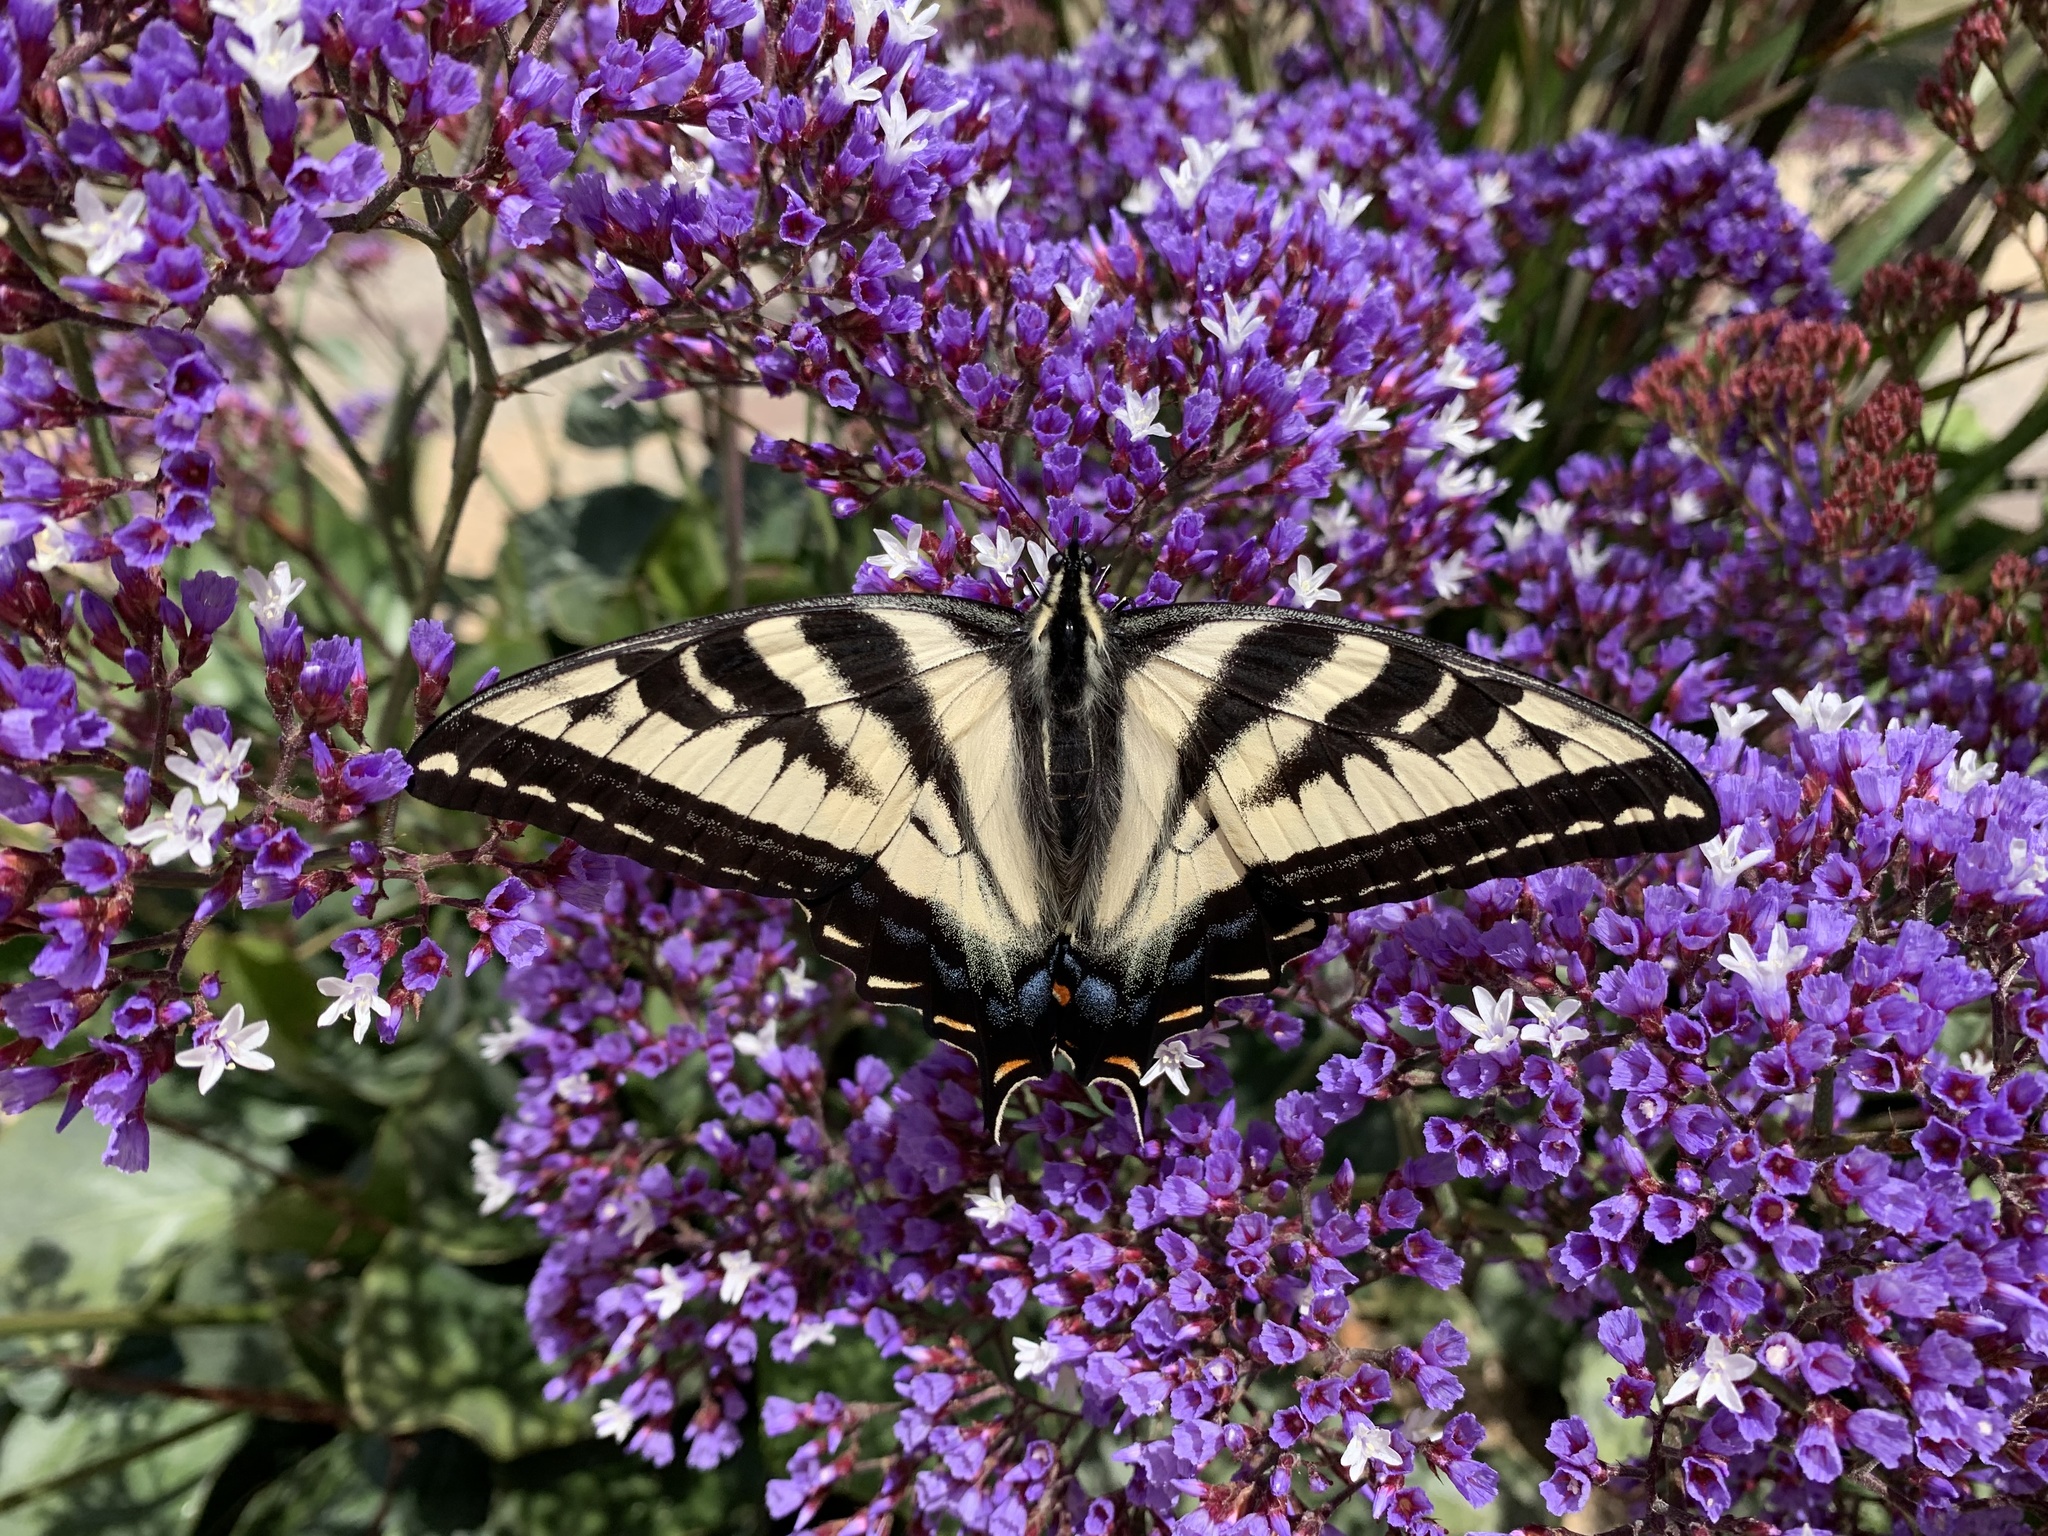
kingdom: Animalia
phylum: Arthropoda
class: Insecta
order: Lepidoptera
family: Papilionidae
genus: Papilio
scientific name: Papilio eurymedon
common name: Pale tiger swallowtail
